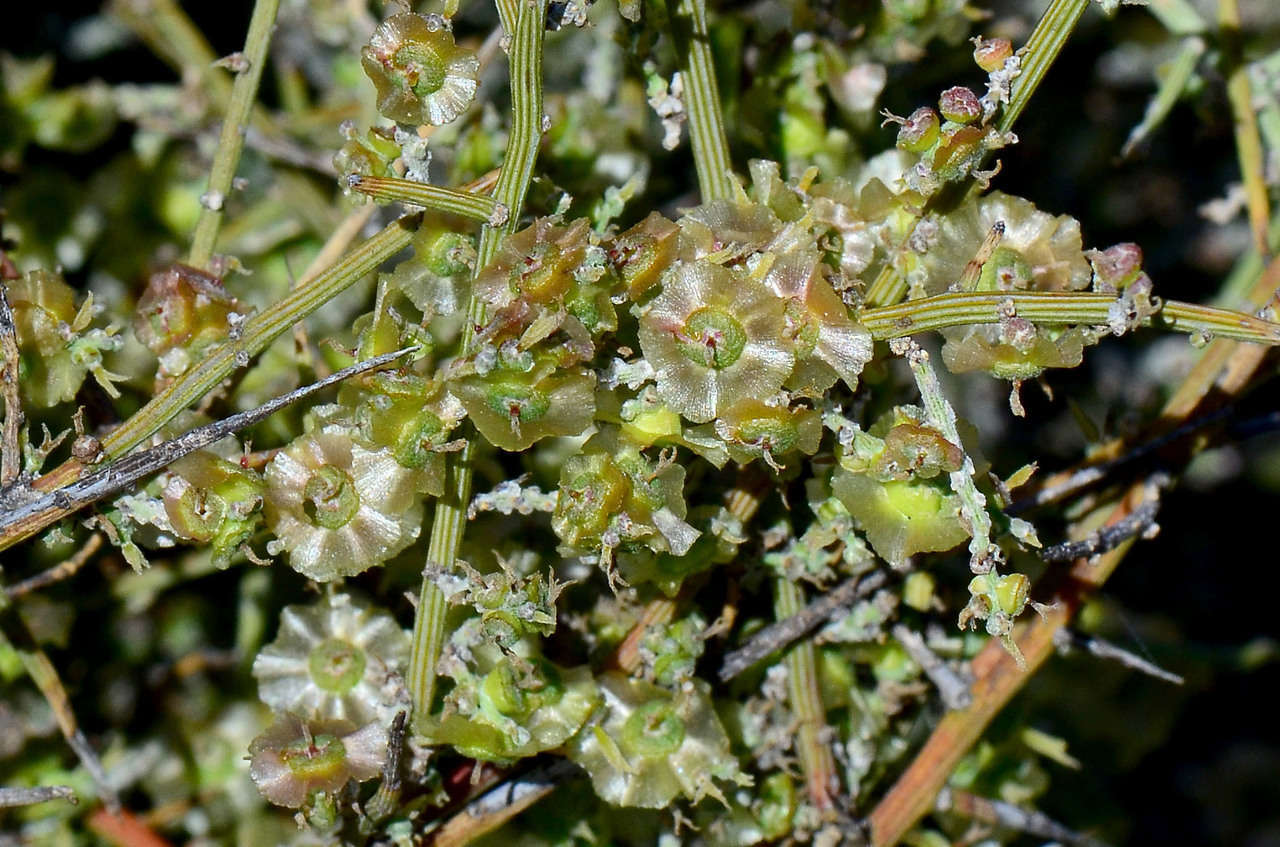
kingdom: Plantae
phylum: Tracheophyta
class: Magnoliopsida
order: Caryophyllales
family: Amaranthaceae
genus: Maireana
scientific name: Maireana aphylla
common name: Cottonbush
